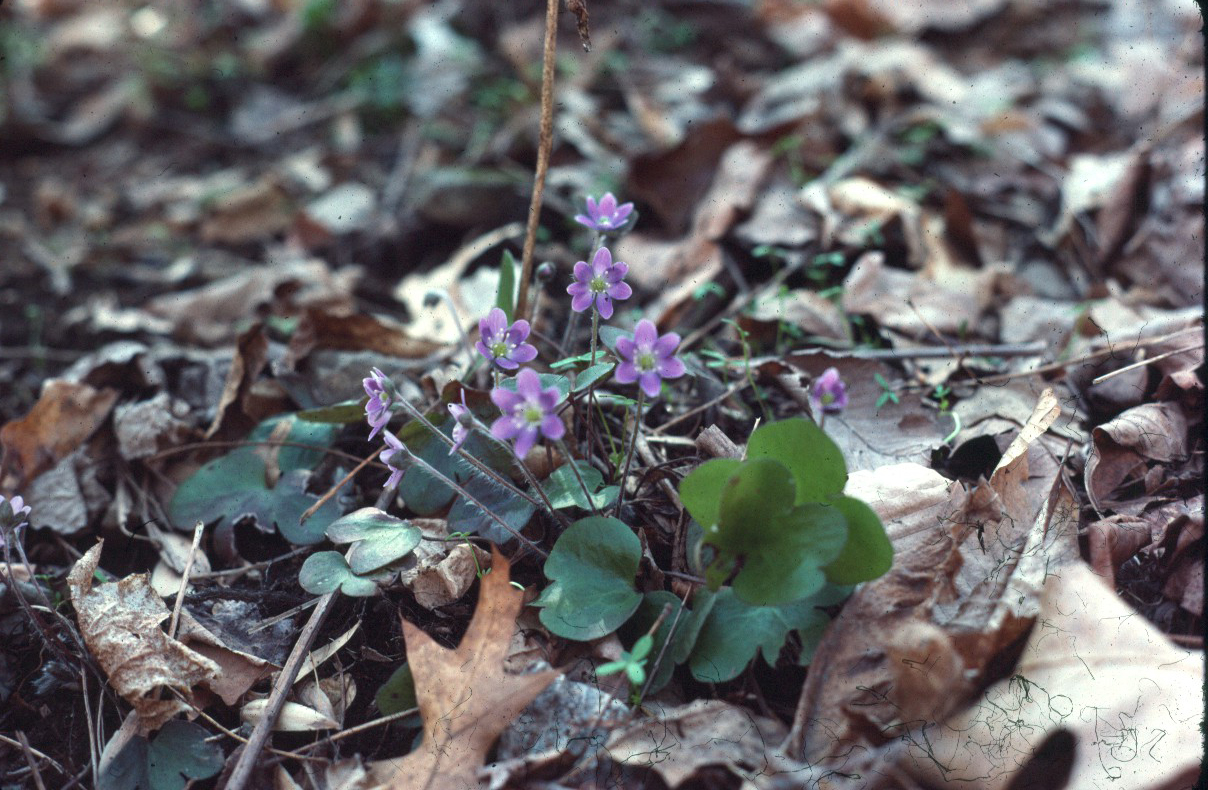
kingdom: Plantae
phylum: Tracheophyta
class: Magnoliopsida
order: Ranunculales
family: Ranunculaceae
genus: Hepatica
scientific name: Hepatica americana
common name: American hepatica
